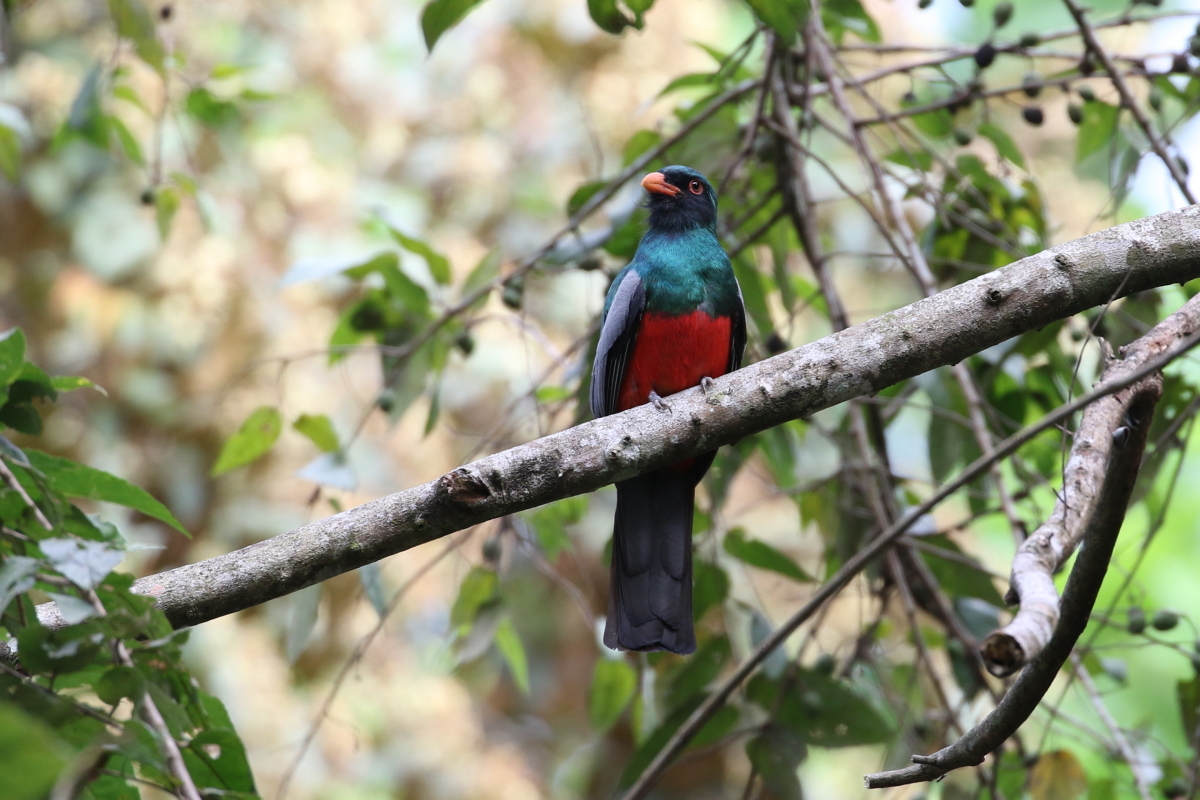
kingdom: Animalia
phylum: Chordata
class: Aves
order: Trogoniformes
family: Trogonidae
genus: Trogon
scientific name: Trogon massena
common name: Slaty-tailed trogon
